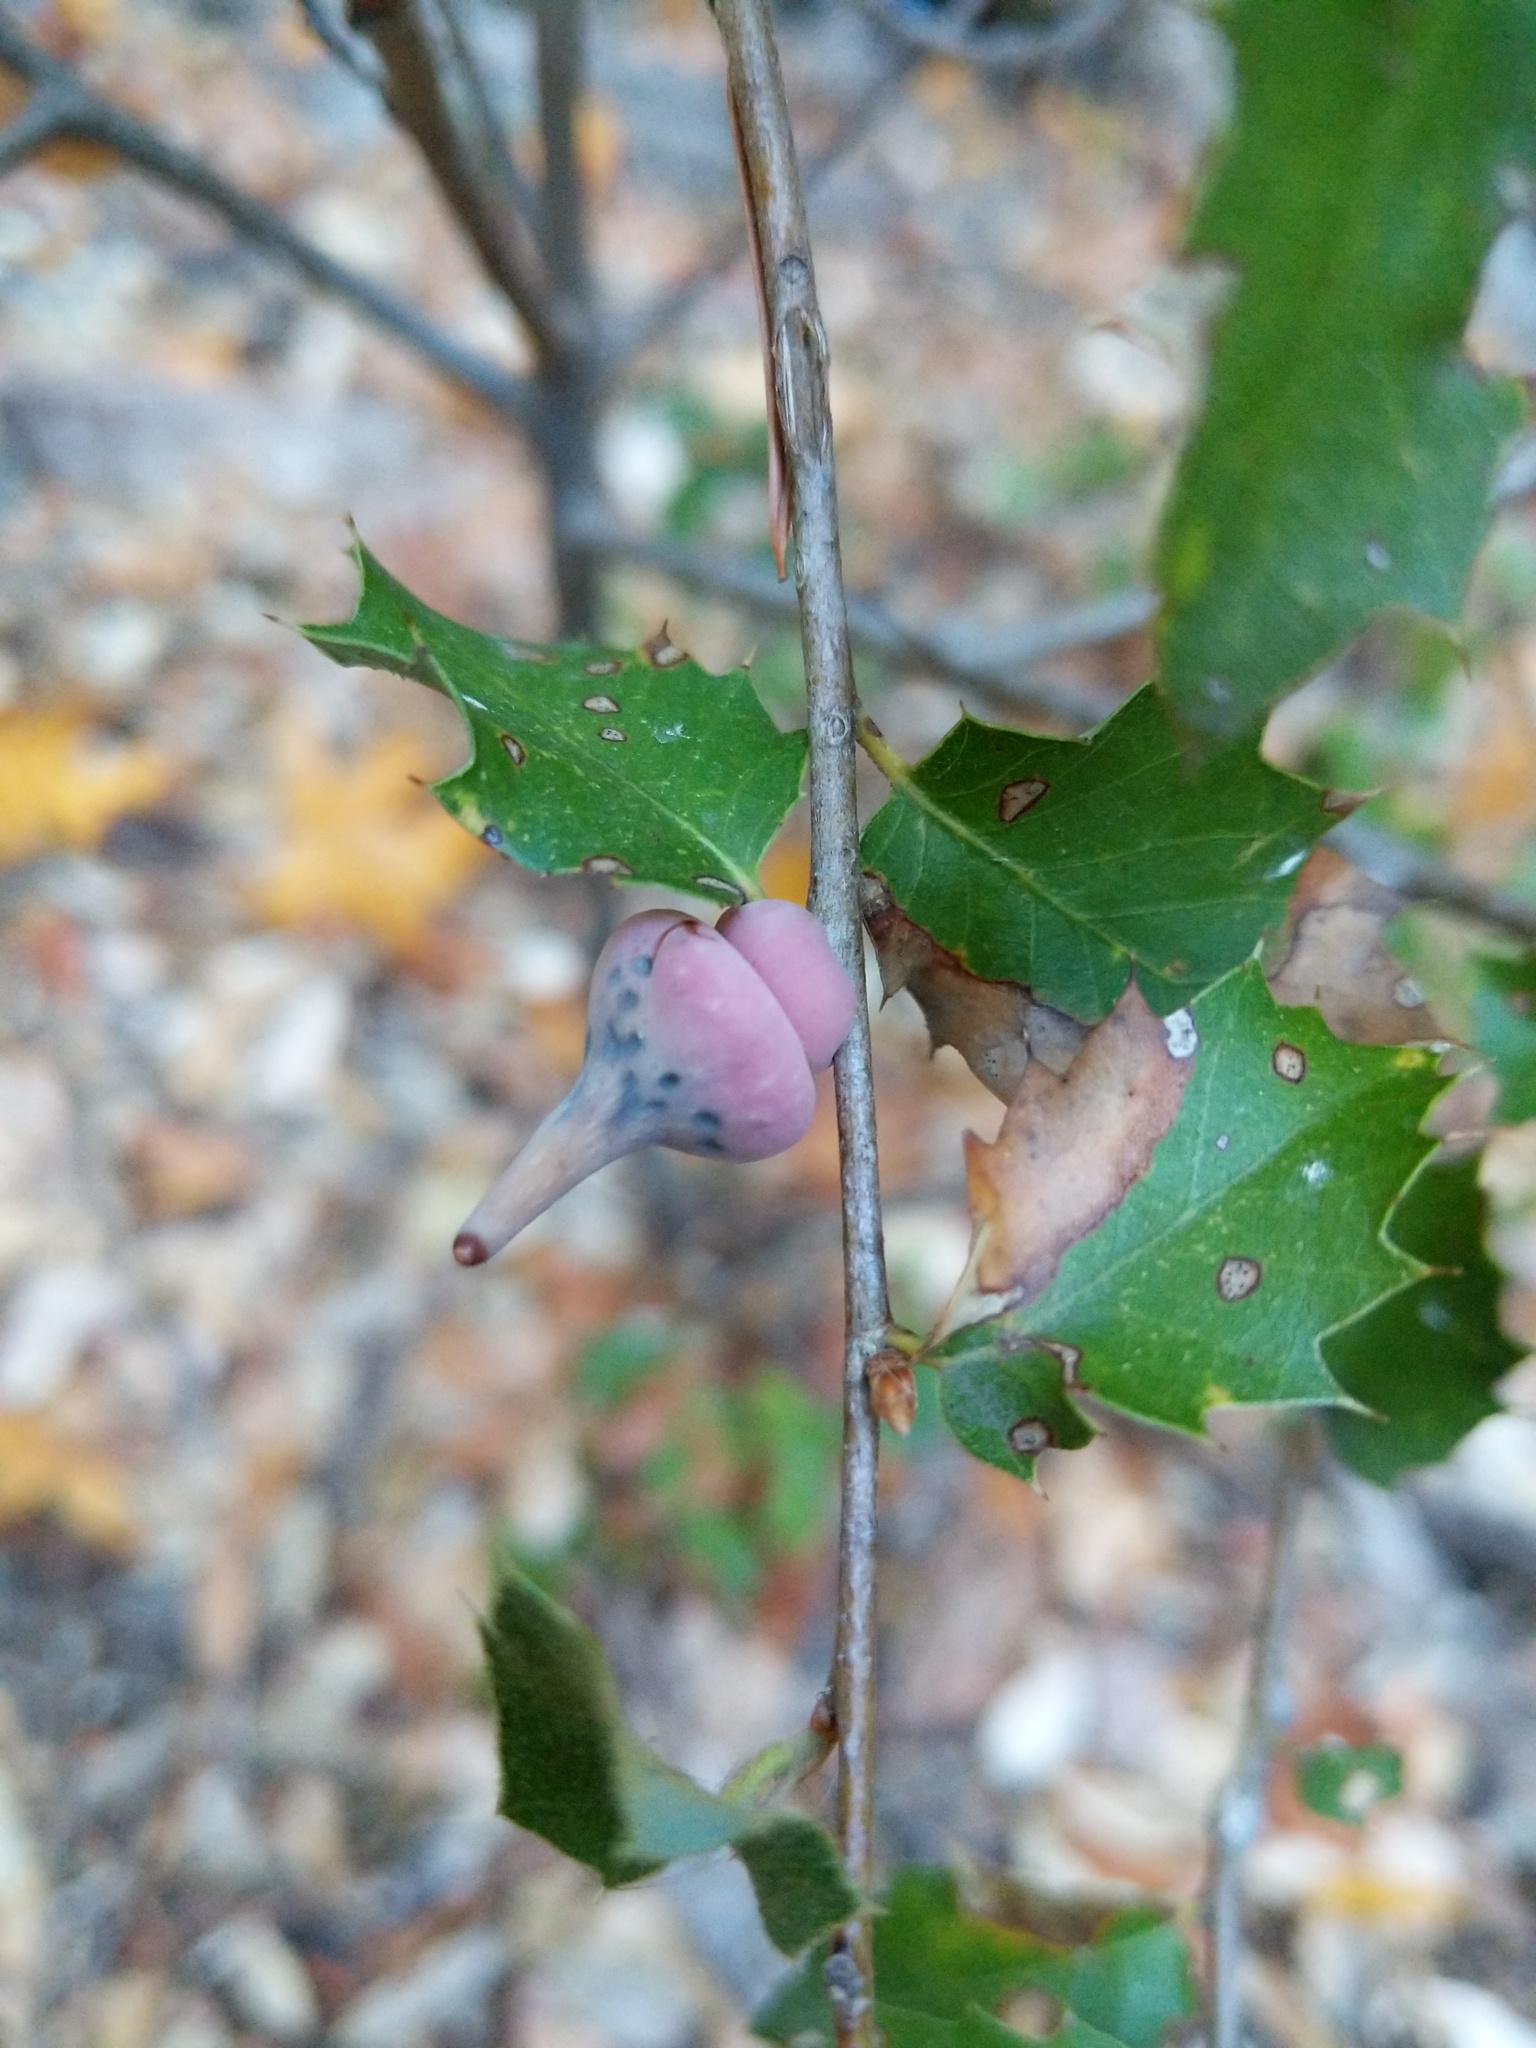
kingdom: Animalia
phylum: Arthropoda
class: Insecta
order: Hymenoptera
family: Cynipidae
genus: Heteroecus
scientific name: Heteroecus
